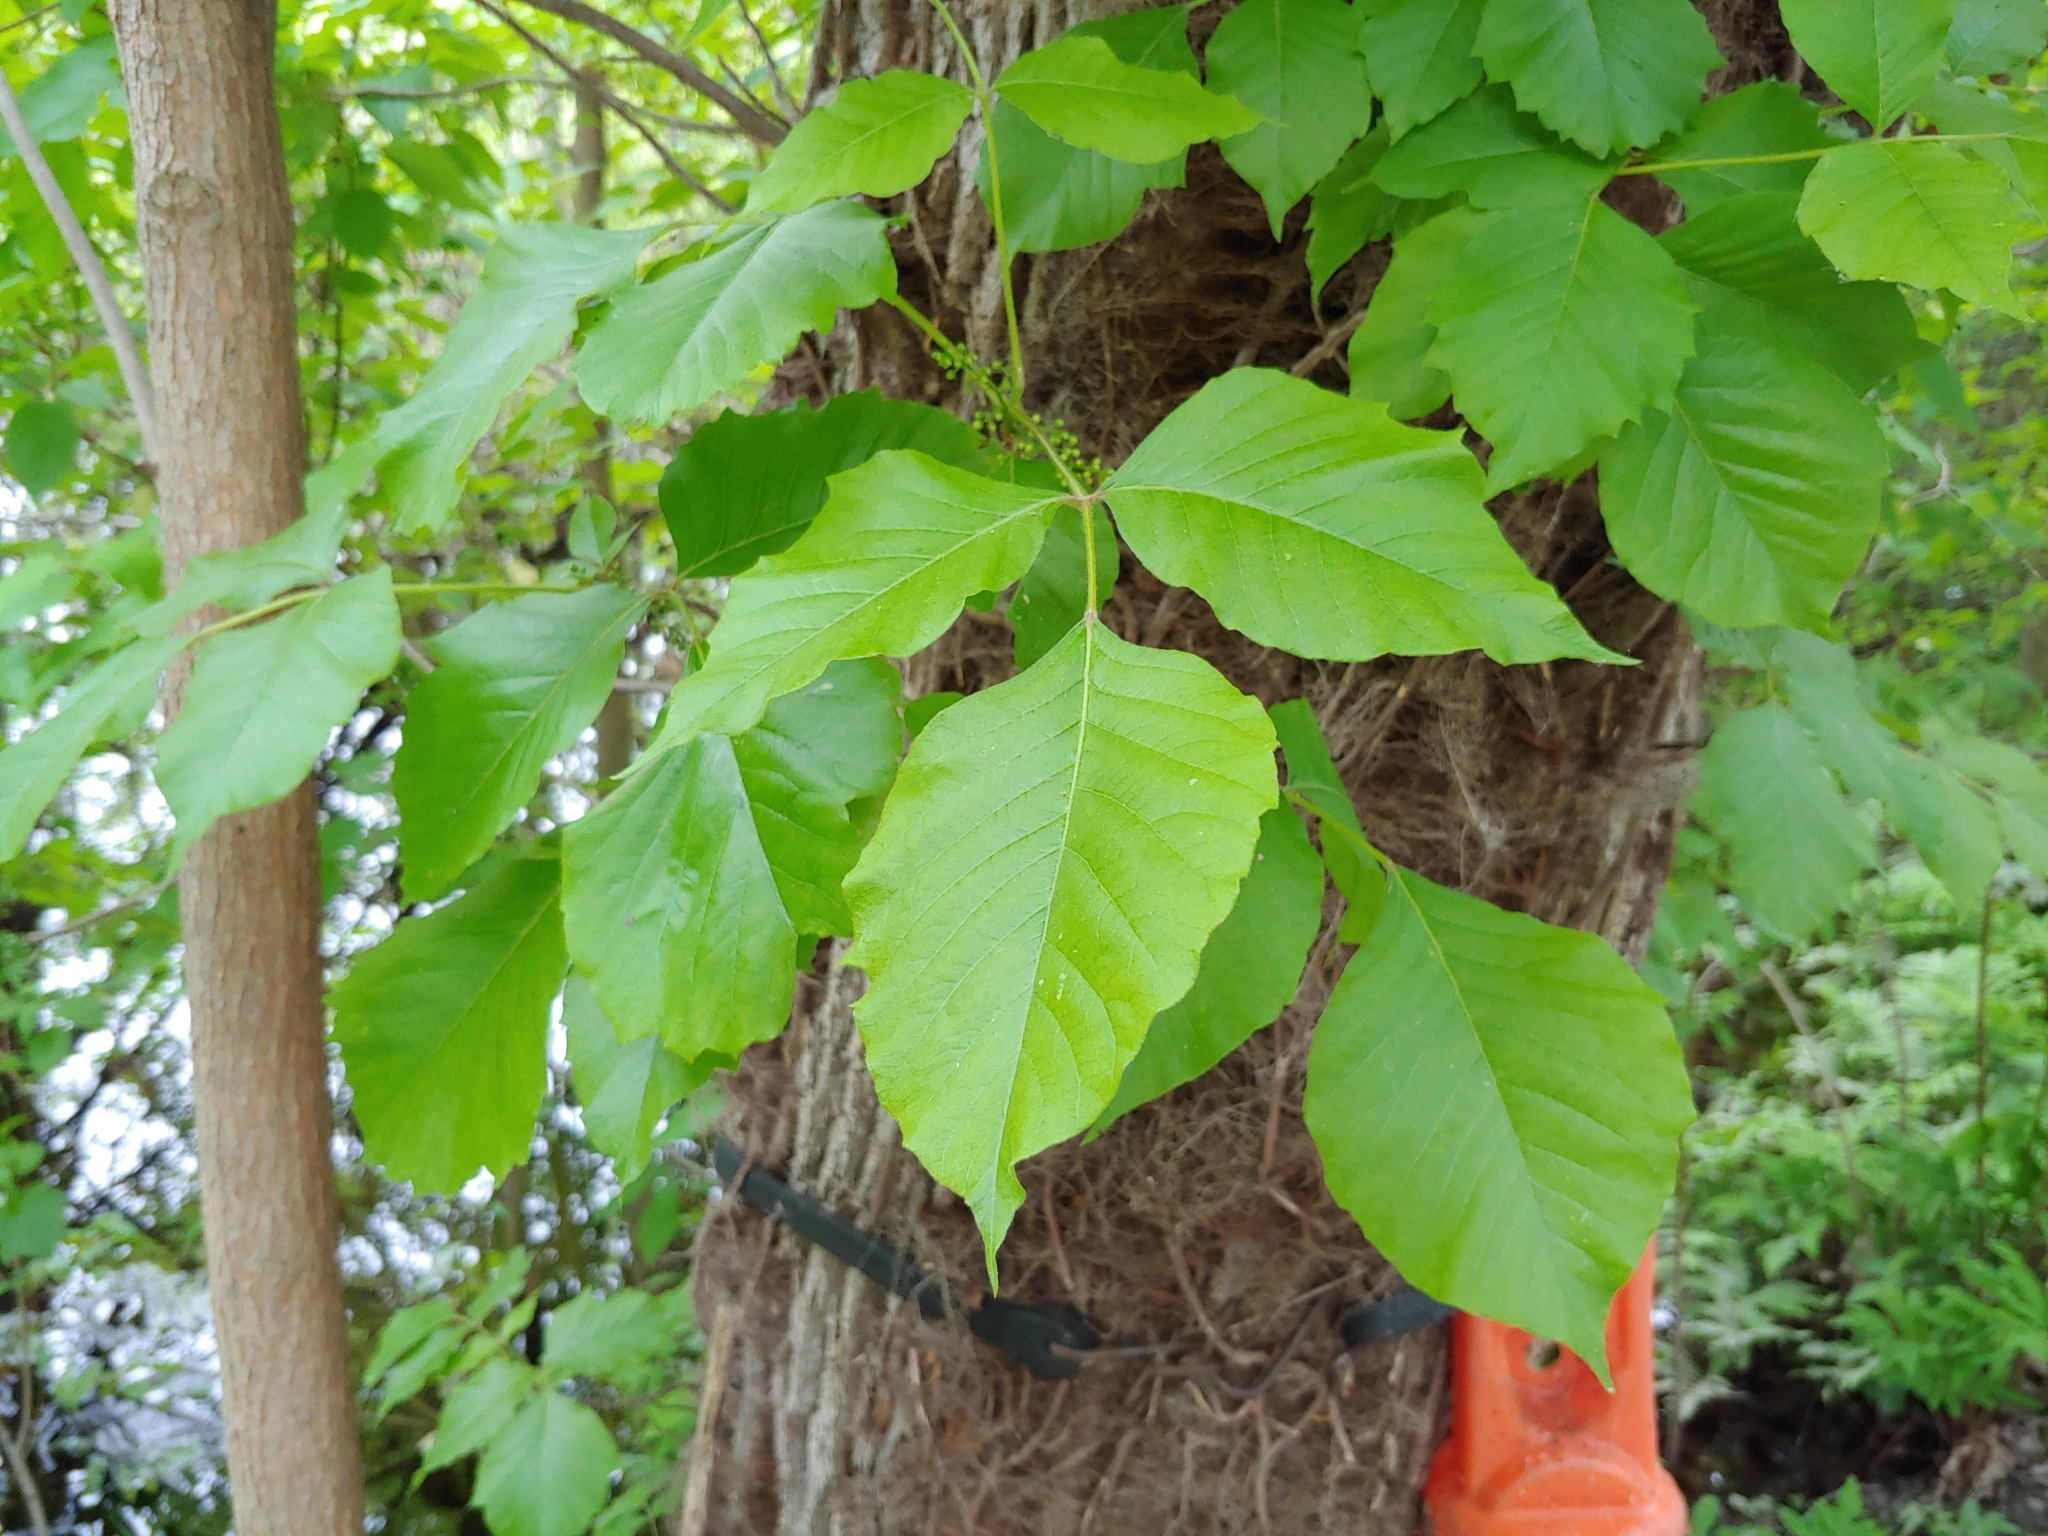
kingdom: Plantae
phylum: Tracheophyta
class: Magnoliopsida
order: Sapindales
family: Anacardiaceae
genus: Toxicodendron
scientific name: Toxicodendron radicans
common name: Poison ivy
